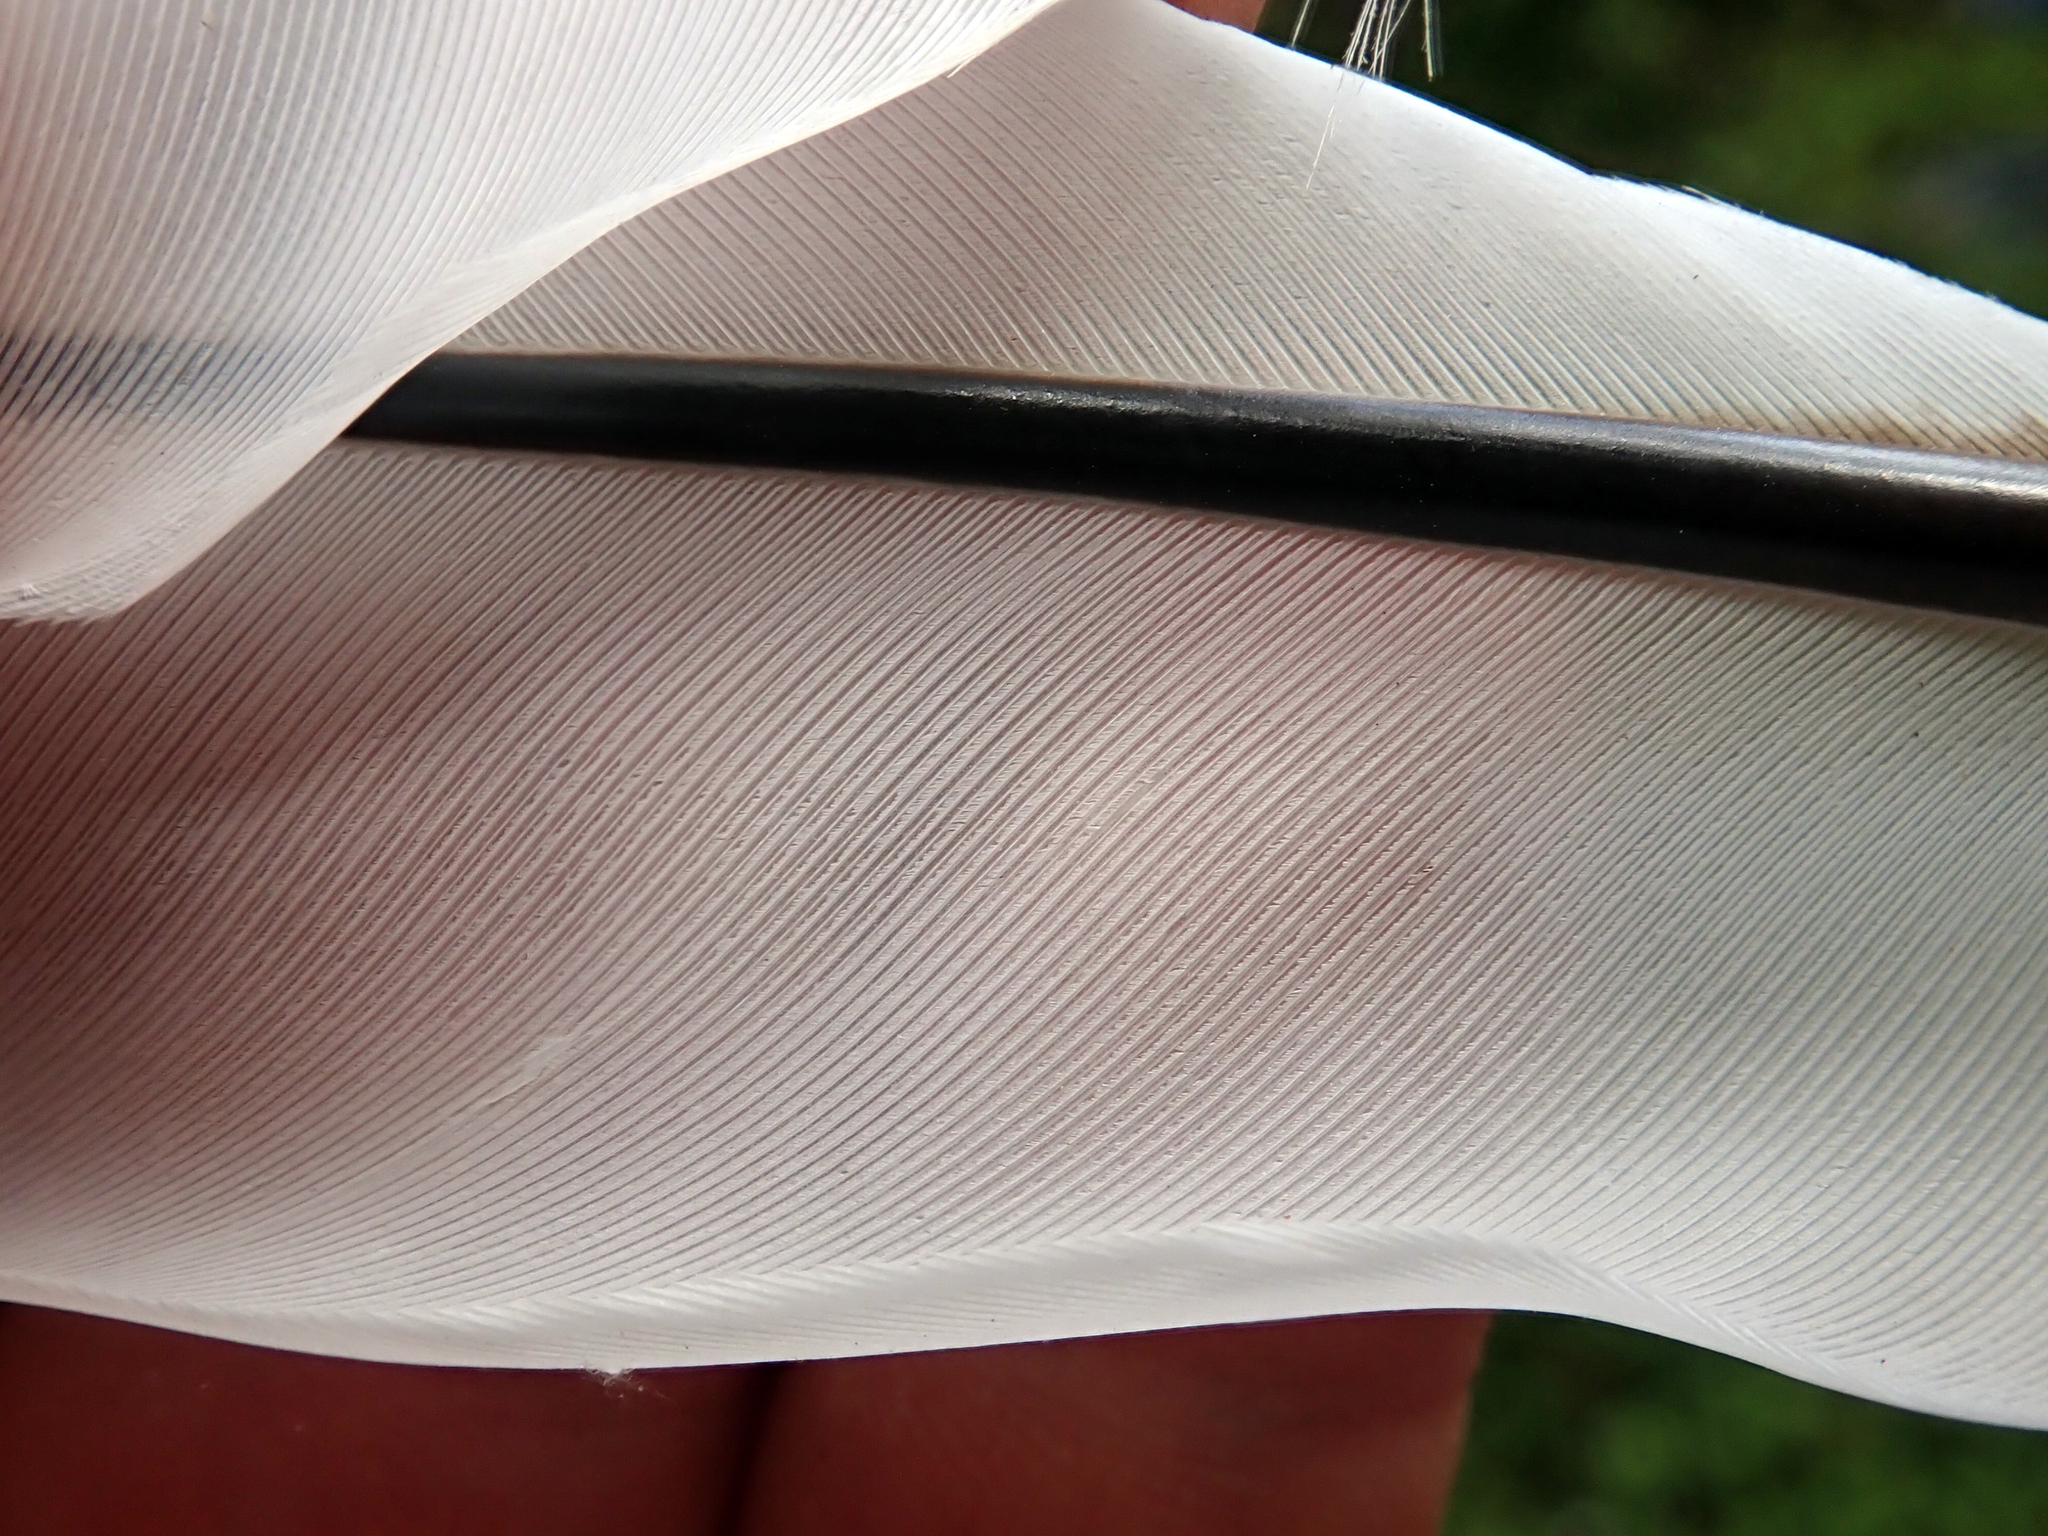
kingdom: Animalia
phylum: Chordata
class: Aves
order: Pelecaniformes
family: Threskiornithidae
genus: Platalea
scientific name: Platalea regia
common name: Royal spoonbill
